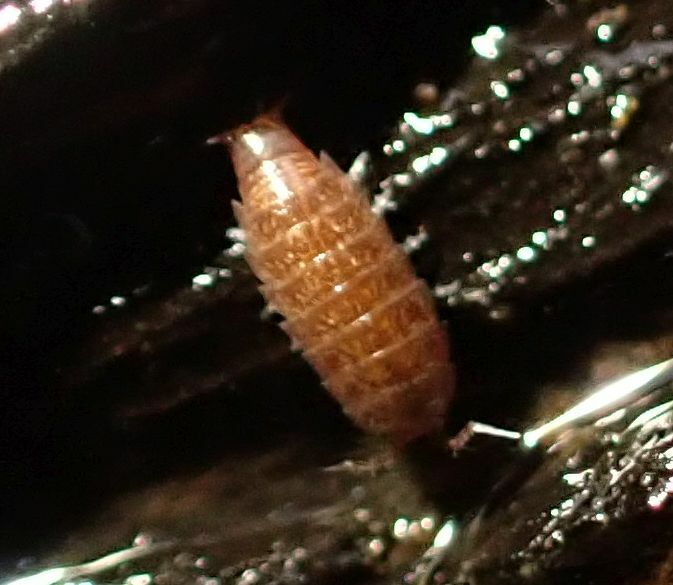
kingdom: Animalia
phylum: Arthropoda
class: Malacostraca
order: Isopoda
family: Trichoniscidae
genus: Trichoniscus
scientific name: Trichoniscus
